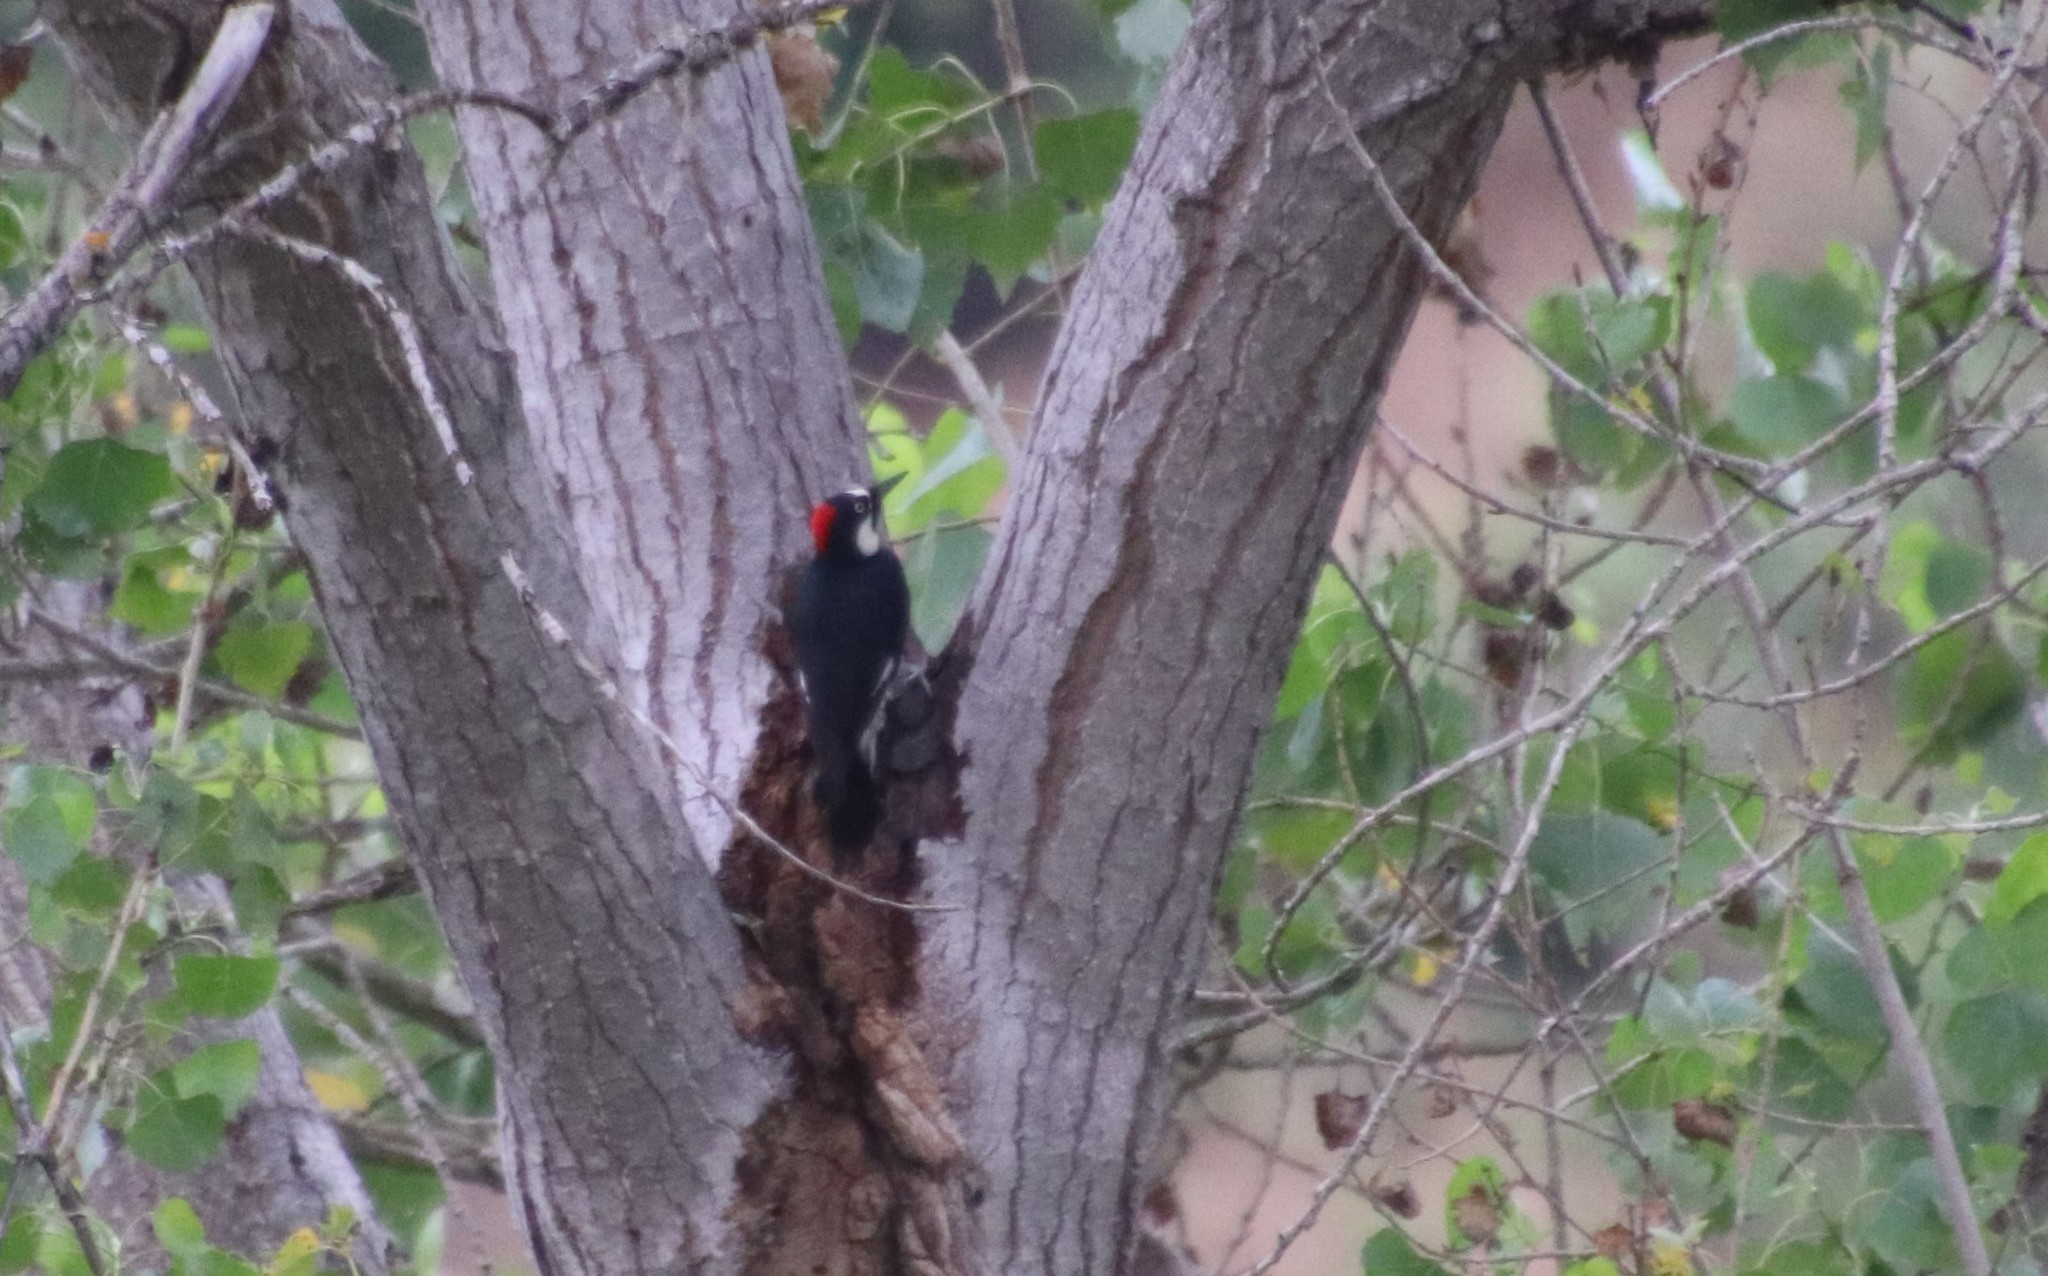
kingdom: Animalia
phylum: Chordata
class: Aves
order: Piciformes
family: Picidae
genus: Melanerpes
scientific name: Melanerpes formicivorus
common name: Acorn woodpecker
